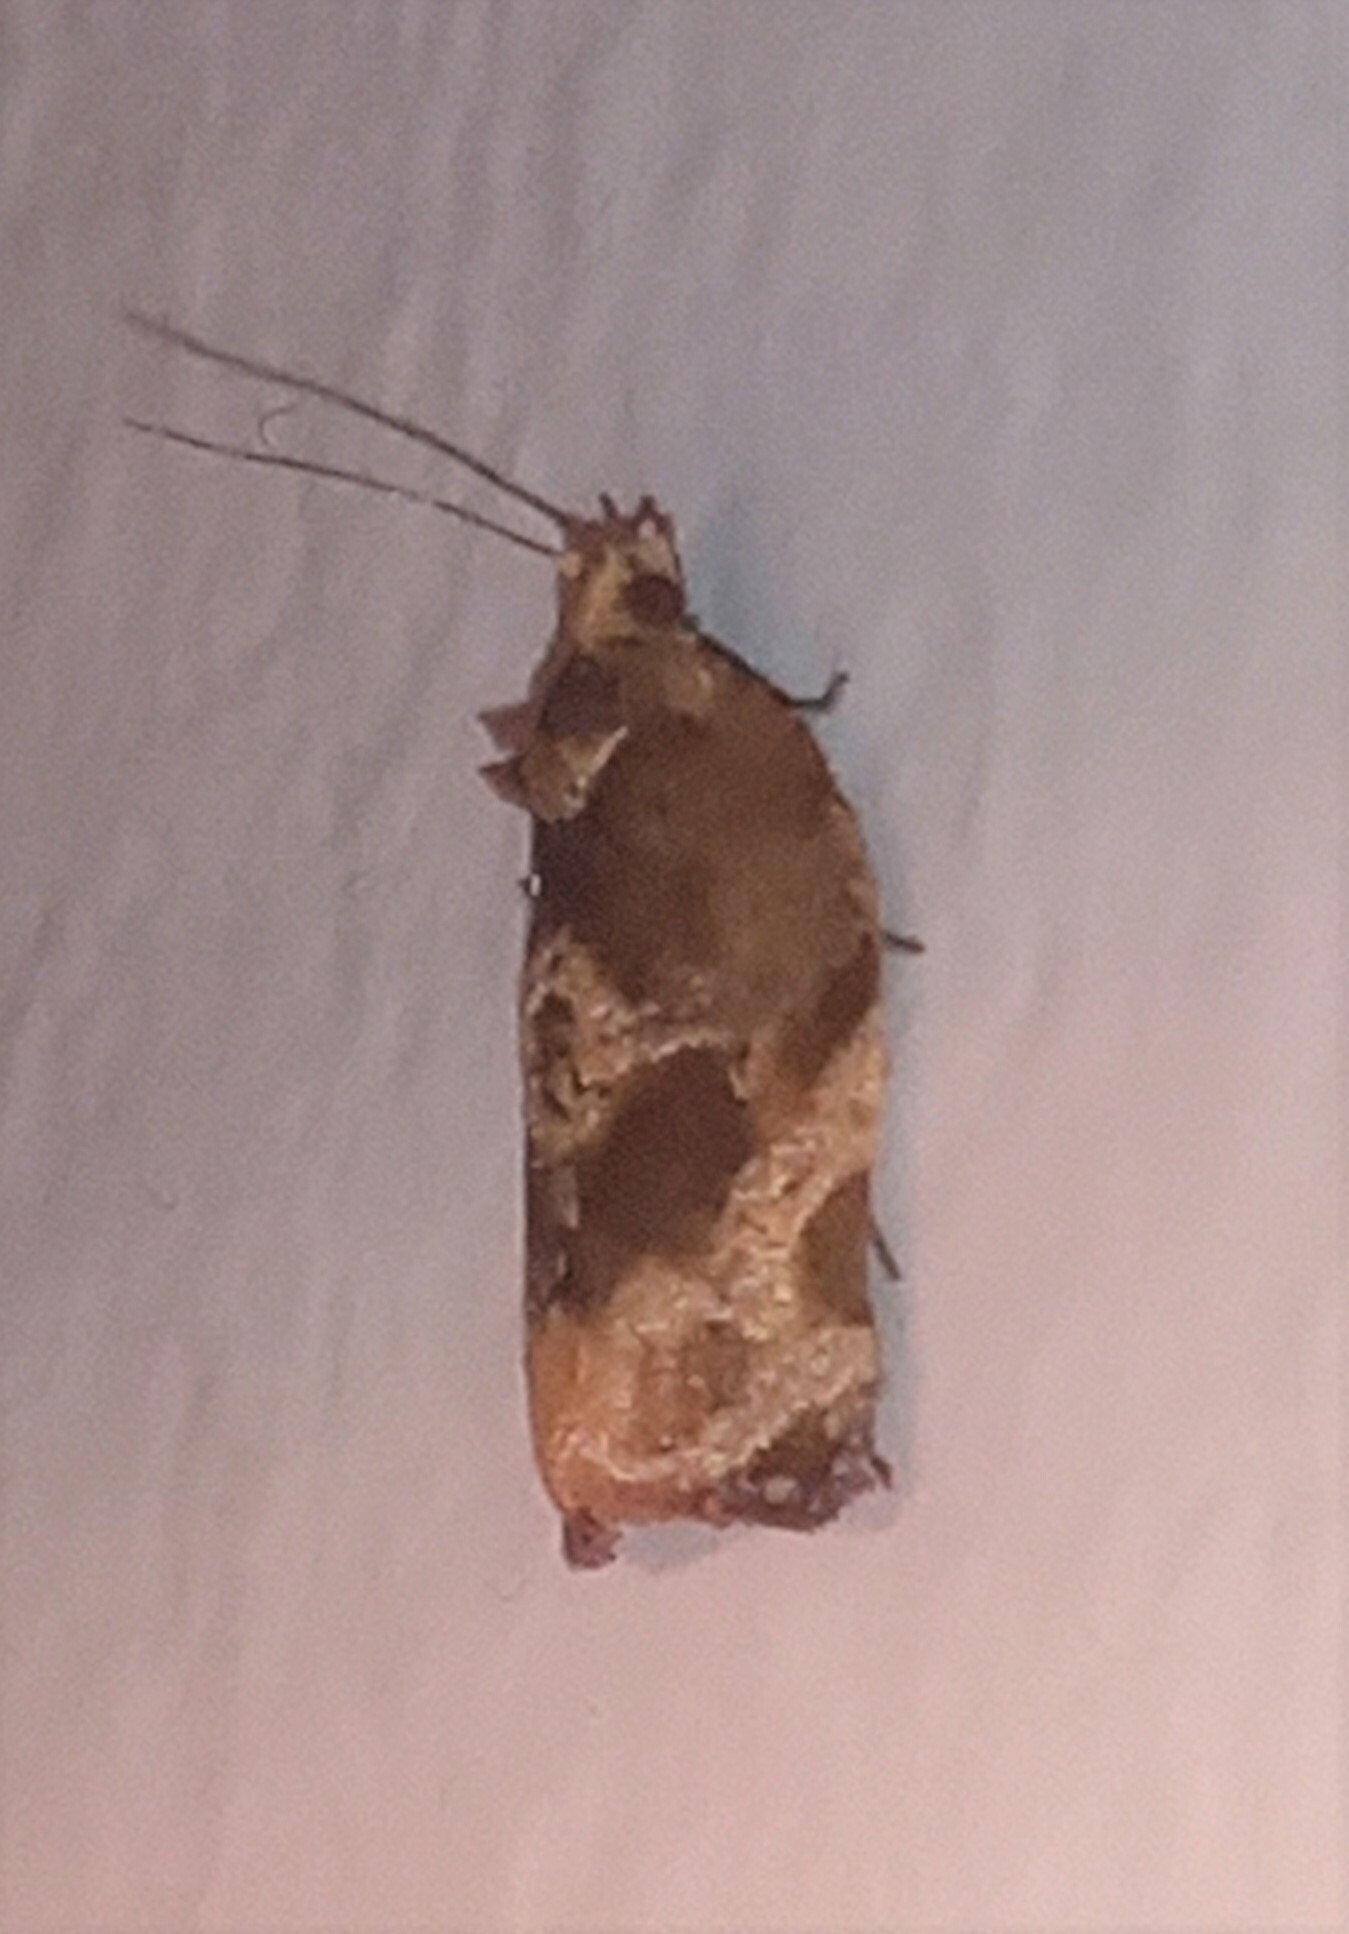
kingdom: Animalia
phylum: Arthropoda
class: Insecta
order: Lepidoptera
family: Tortricidae
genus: Argyrotaenia
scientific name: Argyrotaenia sphaleropa
